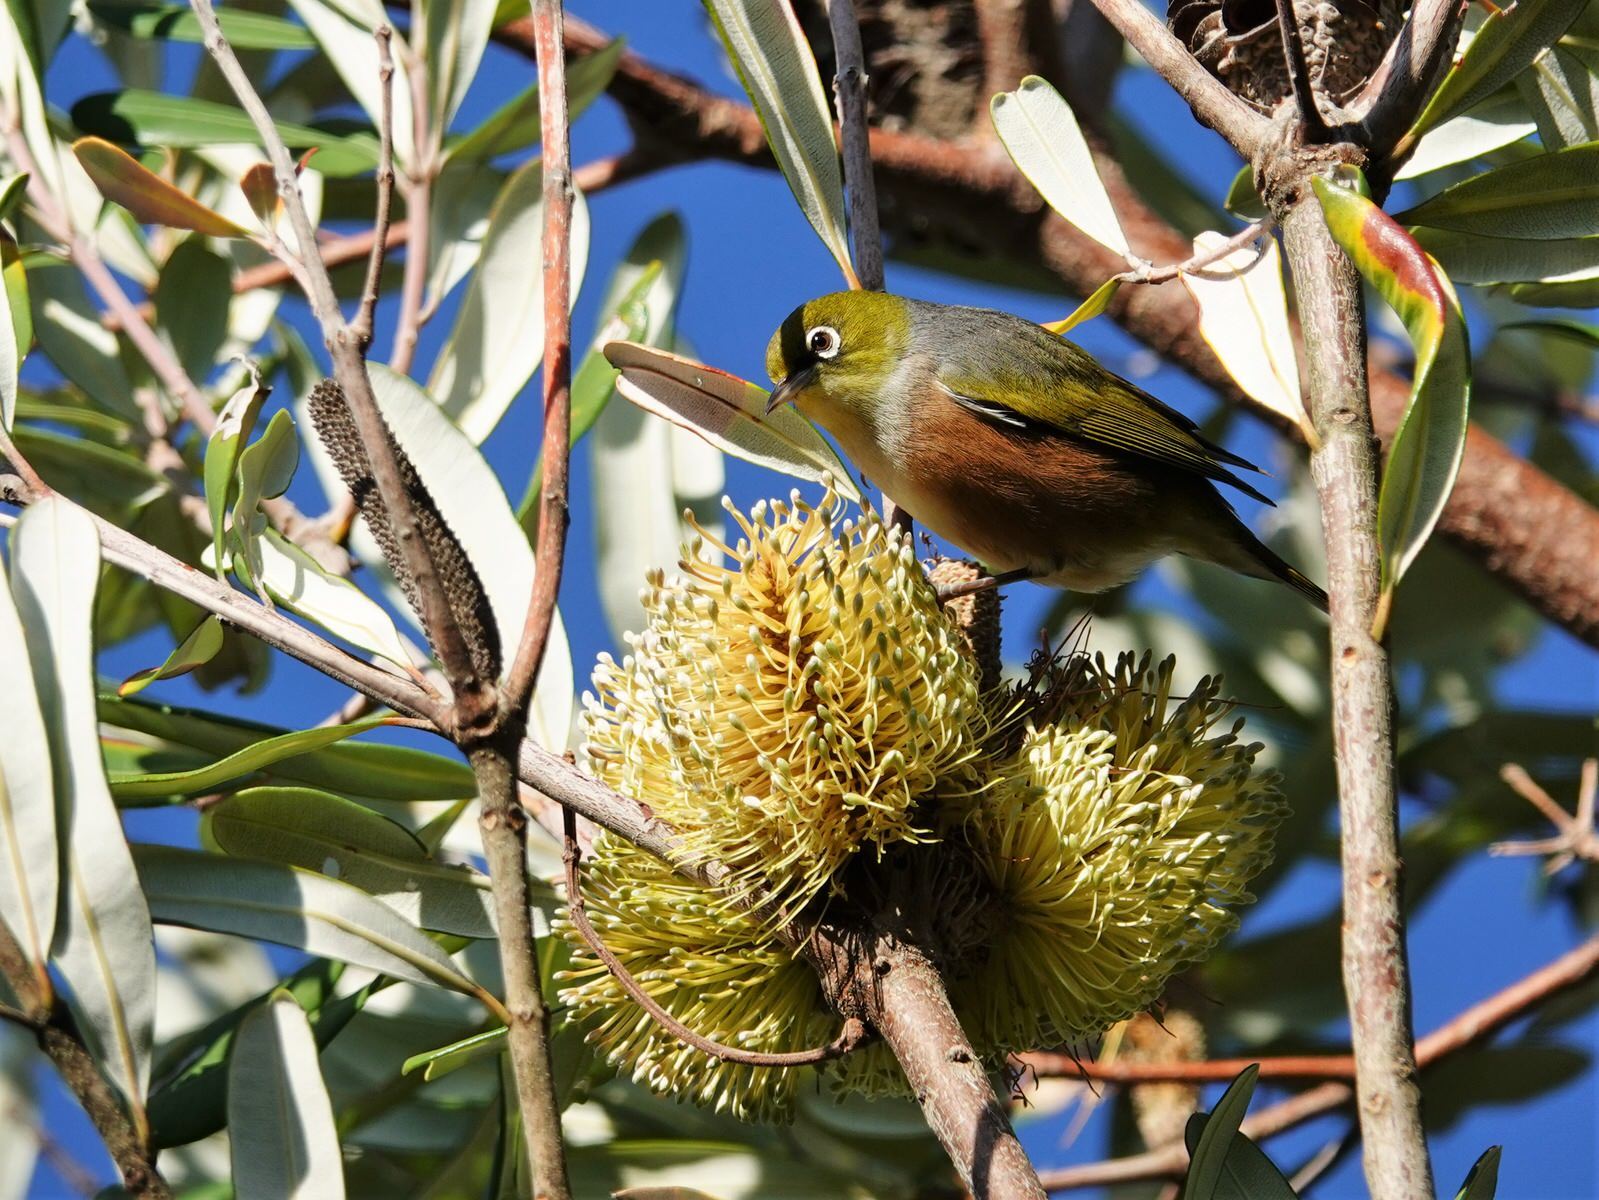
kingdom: Animalia
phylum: Chordata
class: Aves
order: Passeriformes
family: Zosteropidae
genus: Zosterops
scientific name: Zosterops lateralis
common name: Silvereye
